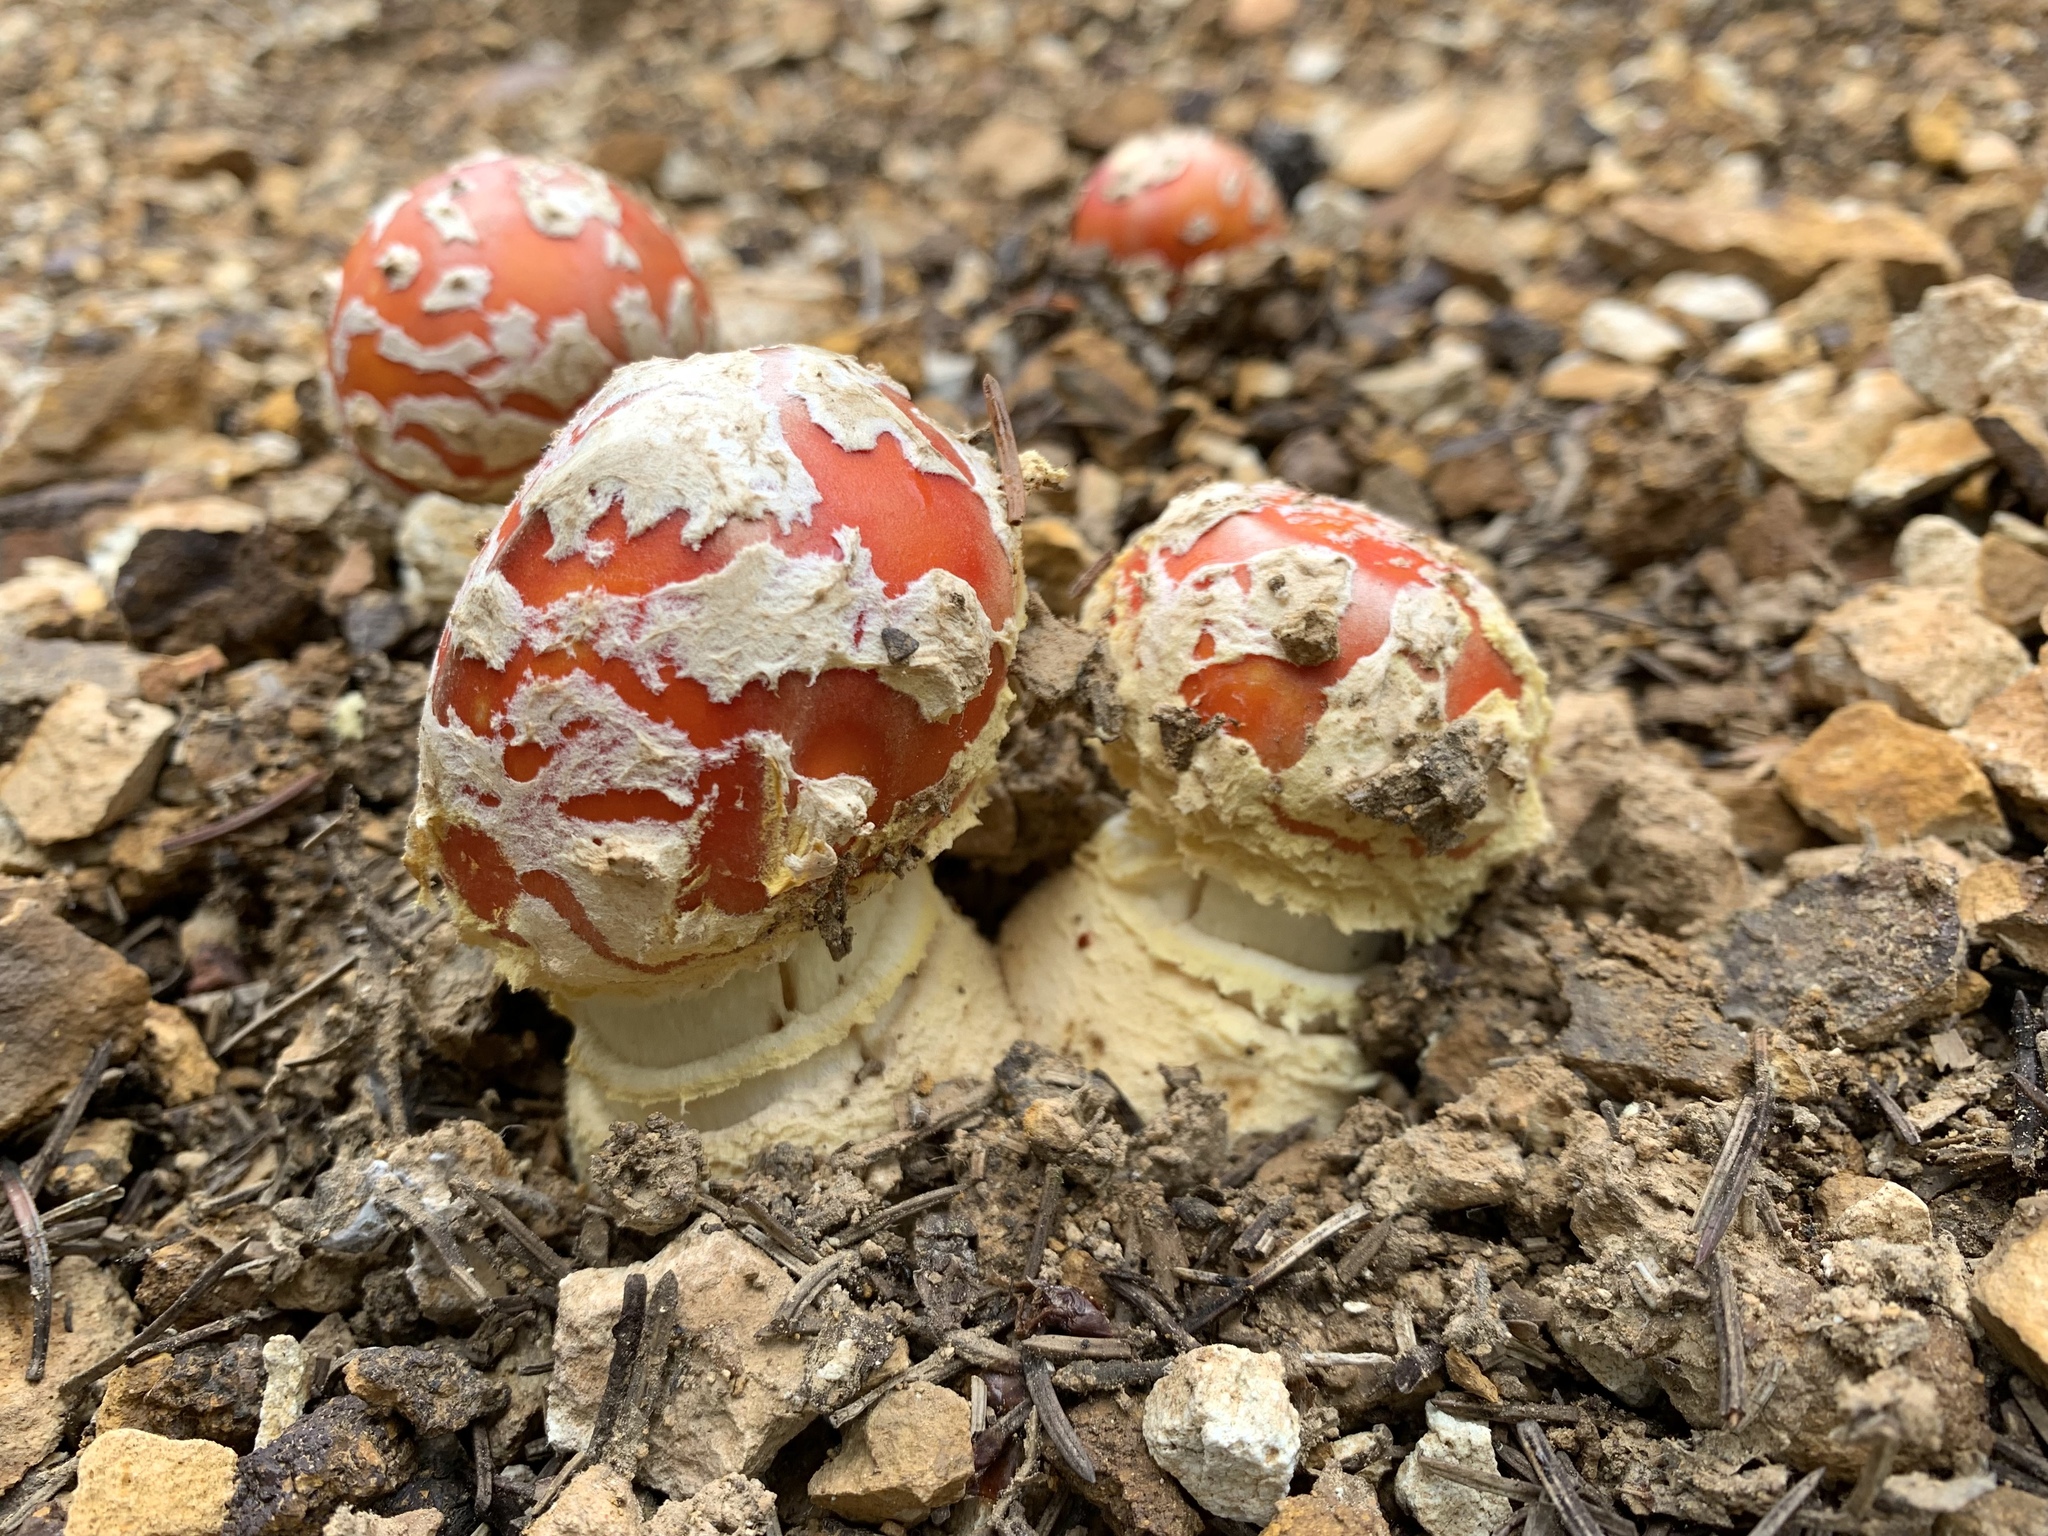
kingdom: Fungi
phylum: Basidiomycota
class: Agaricomycetes
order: Agaricales
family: Amanitaceae
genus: Amanita
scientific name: Amanita muscaria
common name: Fly agaric
